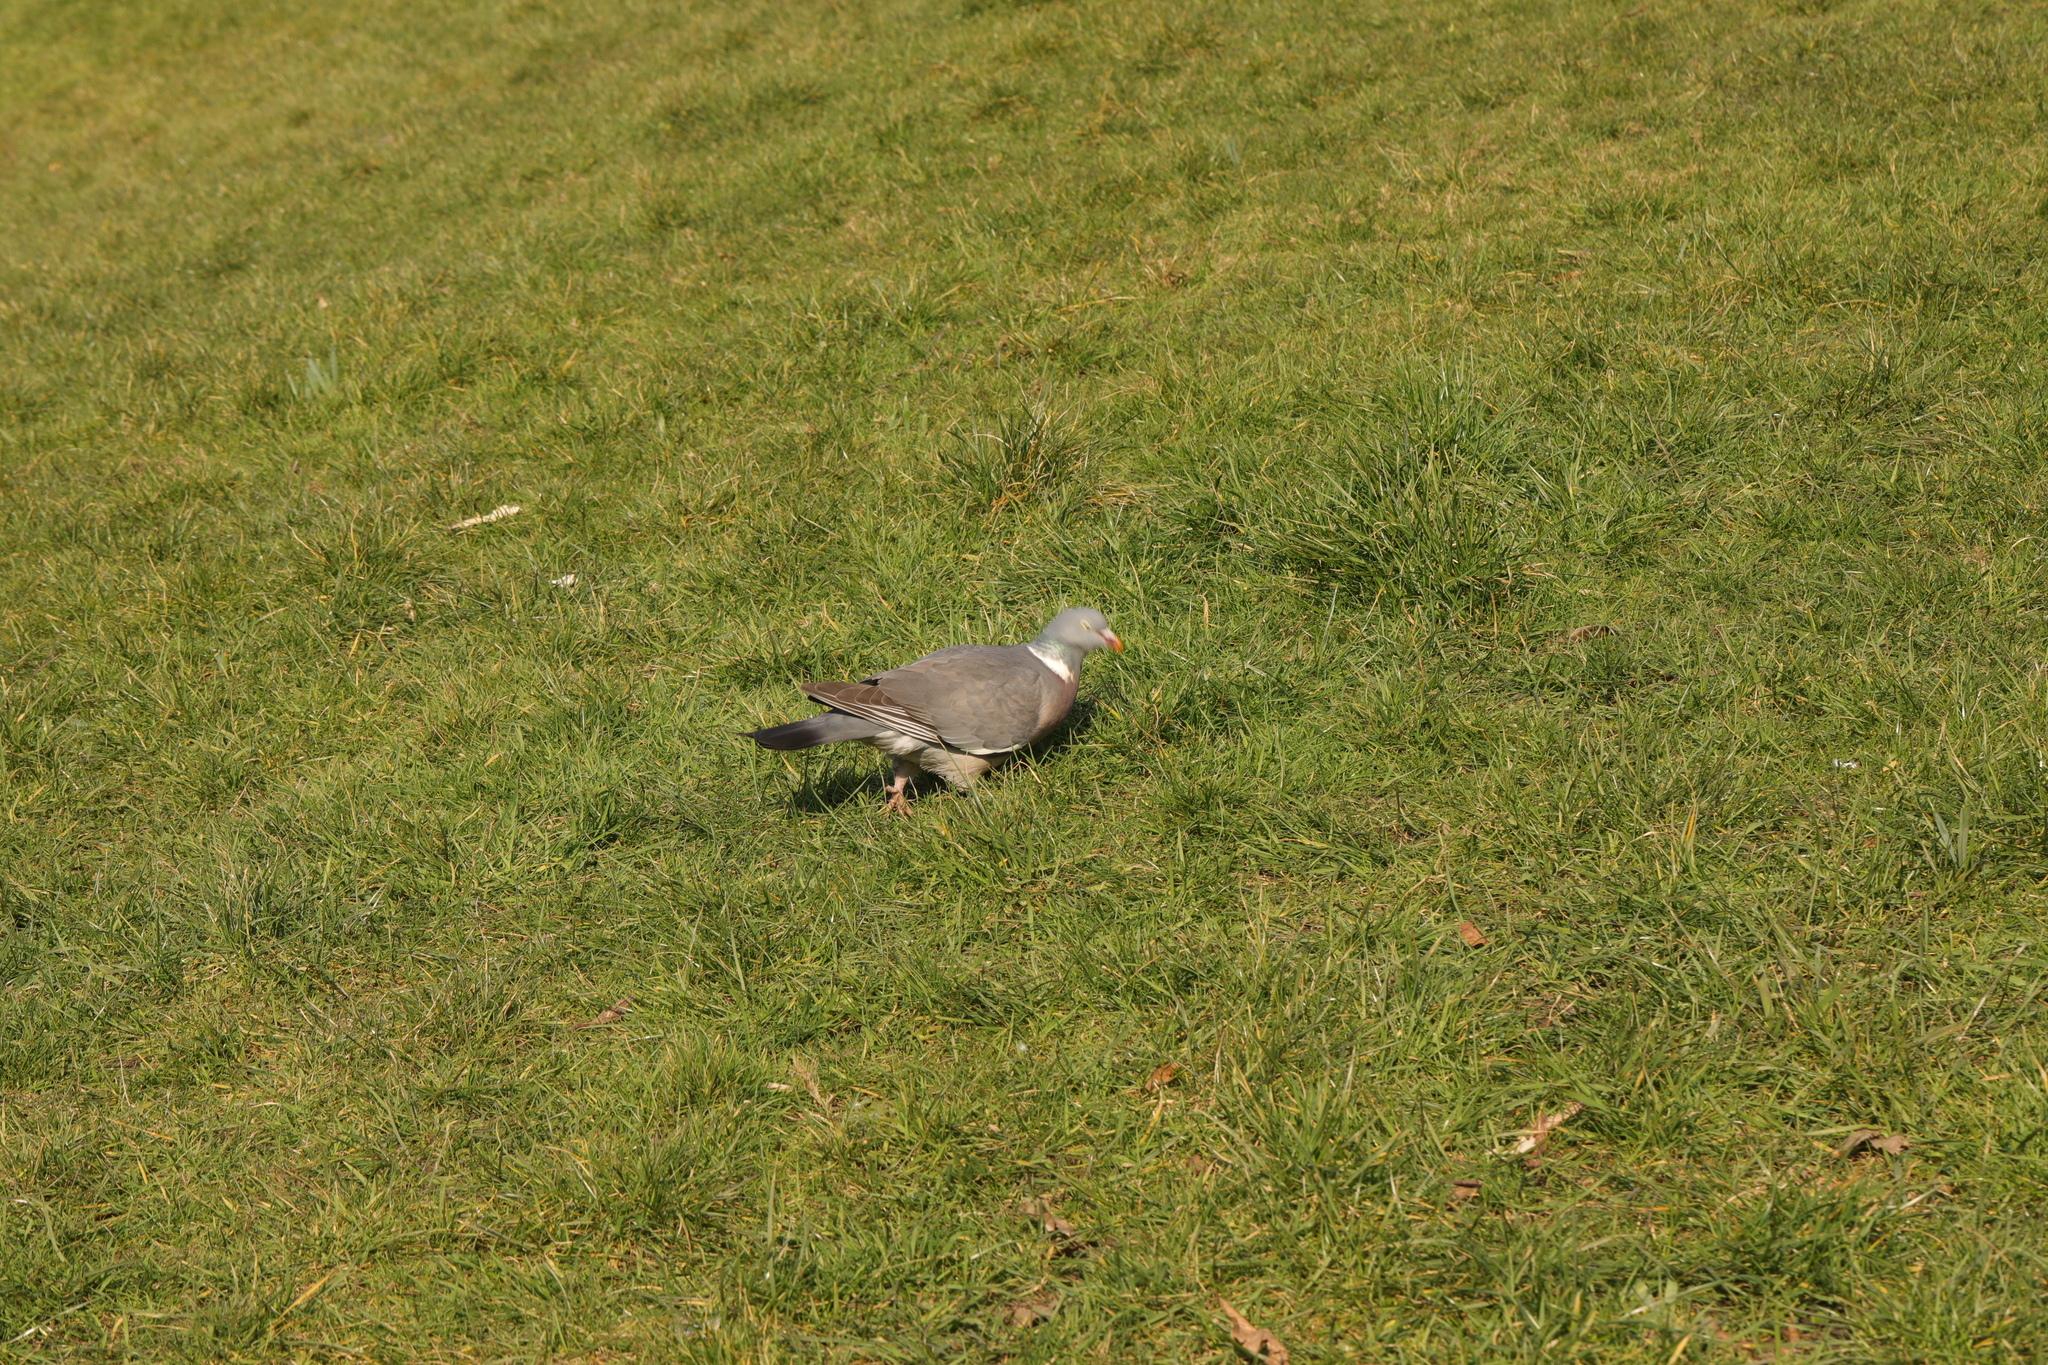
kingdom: Animalia
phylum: Chordata
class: Aves
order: Columbiformes
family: Columbidae
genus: Columba
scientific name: Columba palumbus
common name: Common wood pigeon
